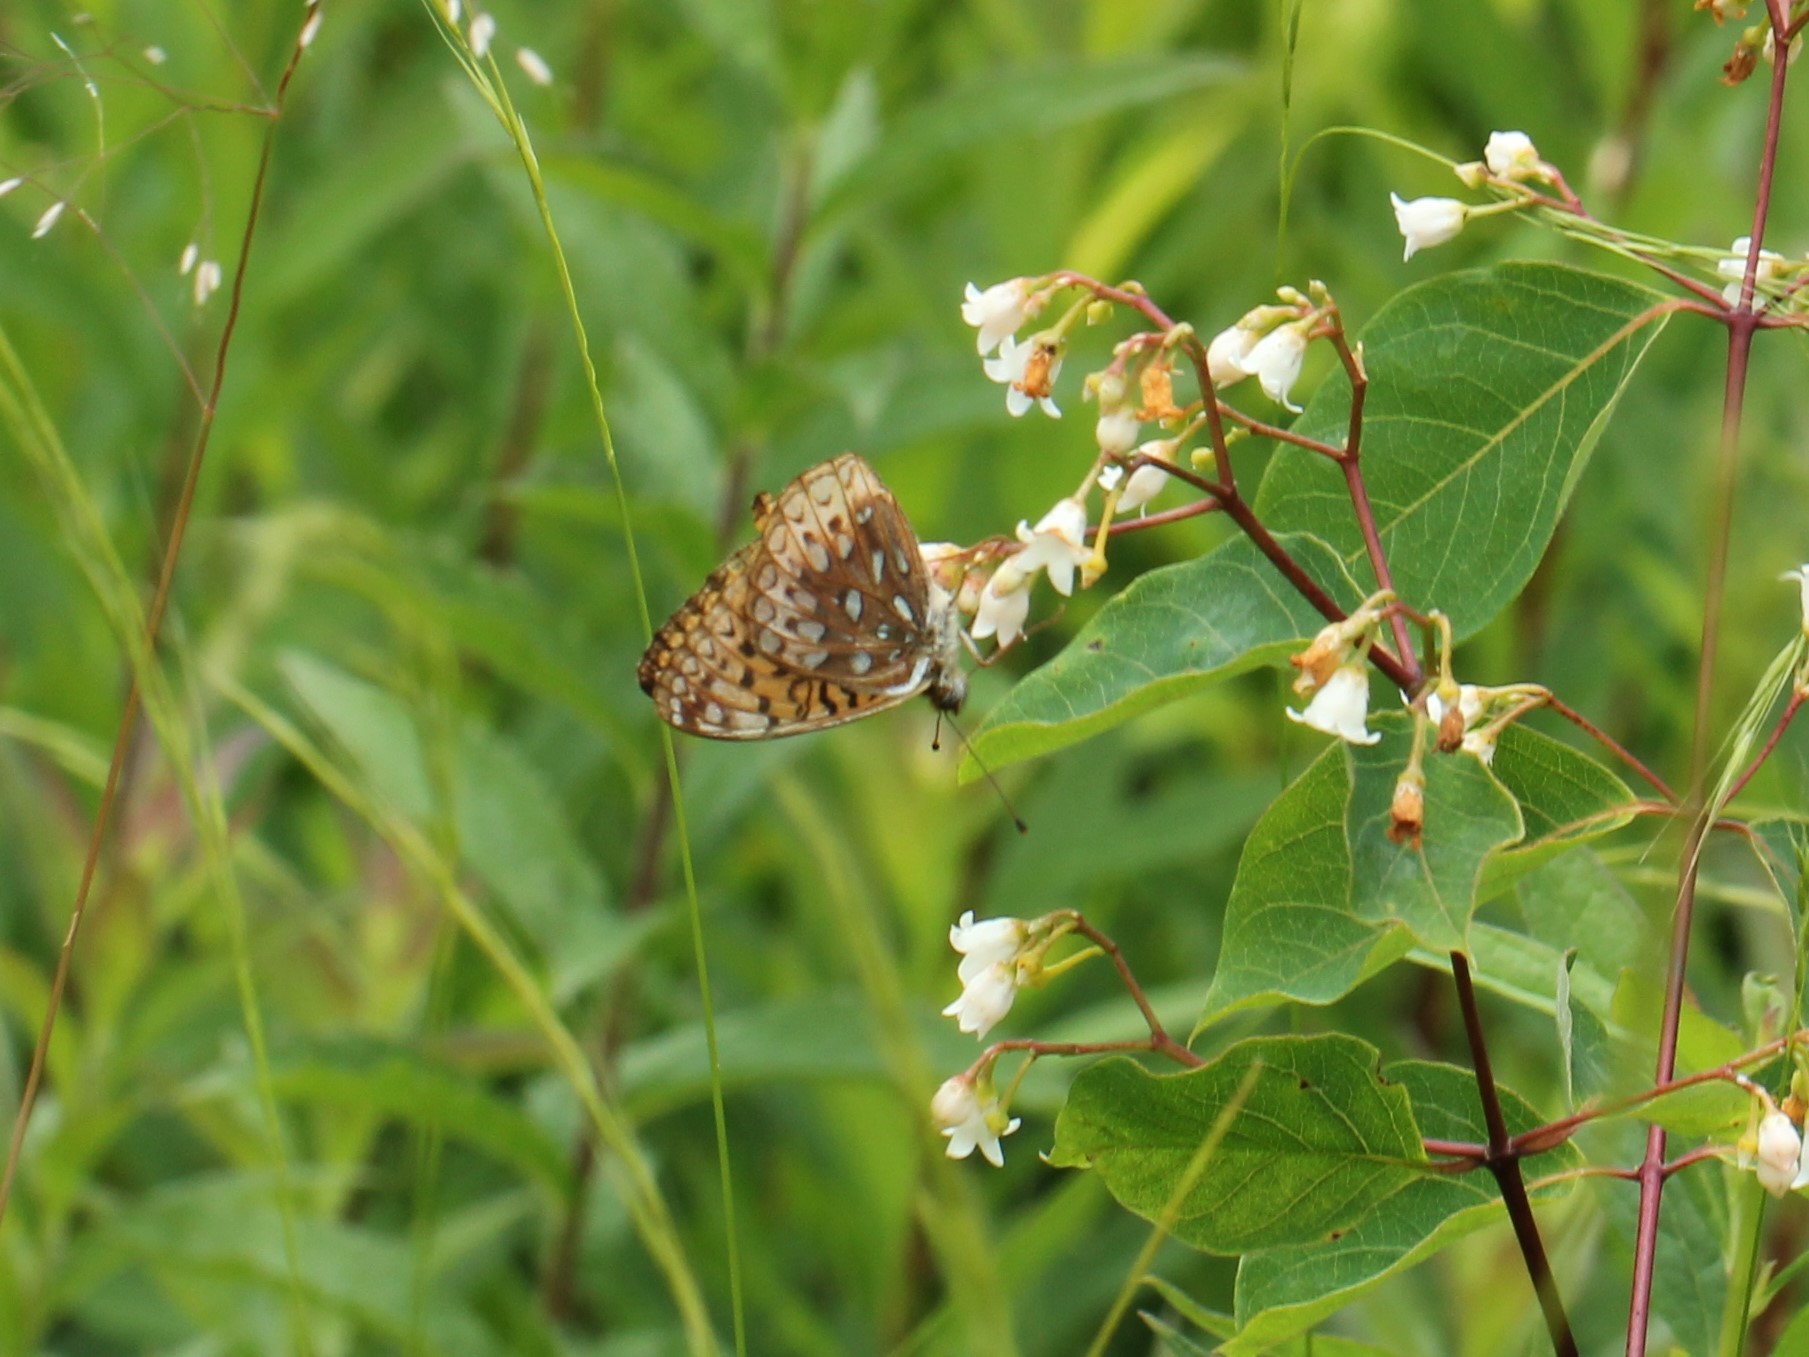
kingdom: Animalia
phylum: Arthropoda
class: Insecta
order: Lepidoptera
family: Nymphalidae
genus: Speyeria
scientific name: Speyeria atlantis
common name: Atlantis fritillary
